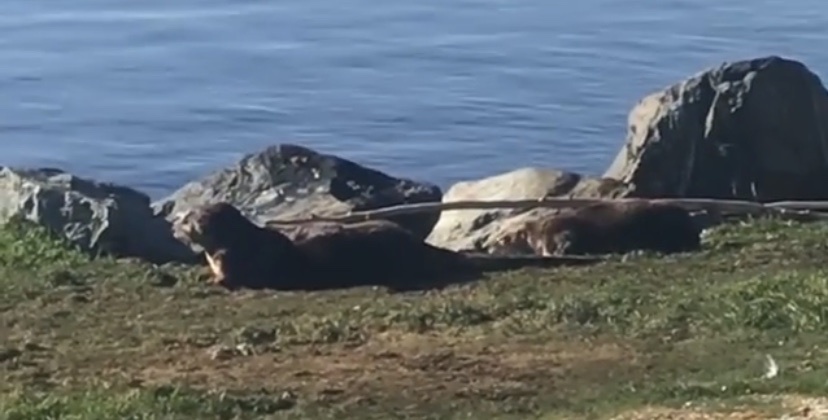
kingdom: Animalia
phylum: Chordata
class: Mammalia
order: Carnivora
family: Mustelidae
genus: Lontra
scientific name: Lontra canadensis
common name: North american river otter
